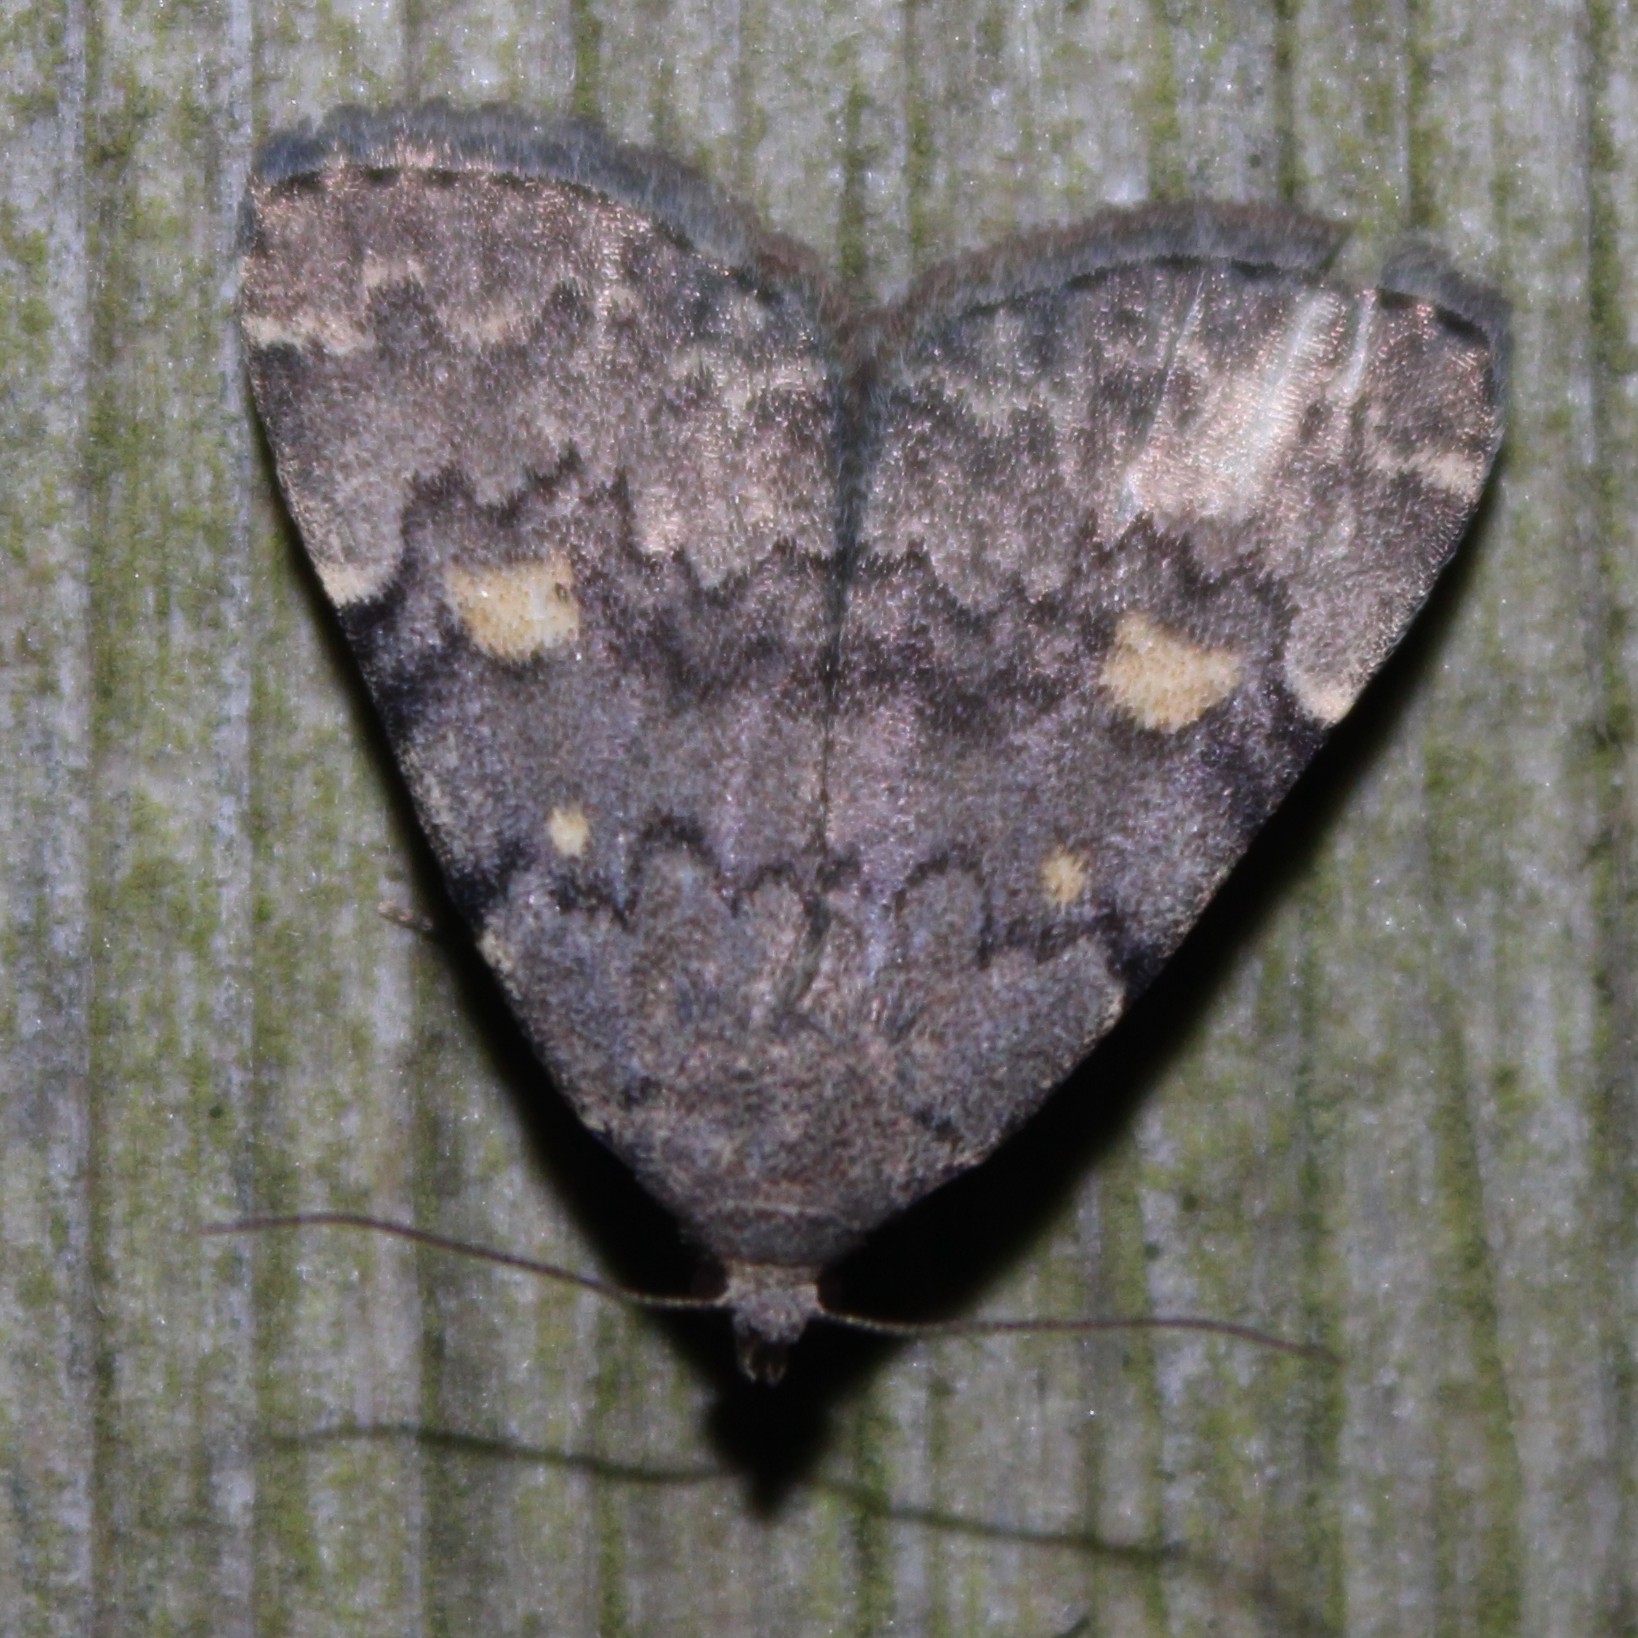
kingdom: Animalia
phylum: Arthropoda
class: Insecta
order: Lepidoptera
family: Erebidae
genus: Idia
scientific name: Idia aemula
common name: Common idia moth
